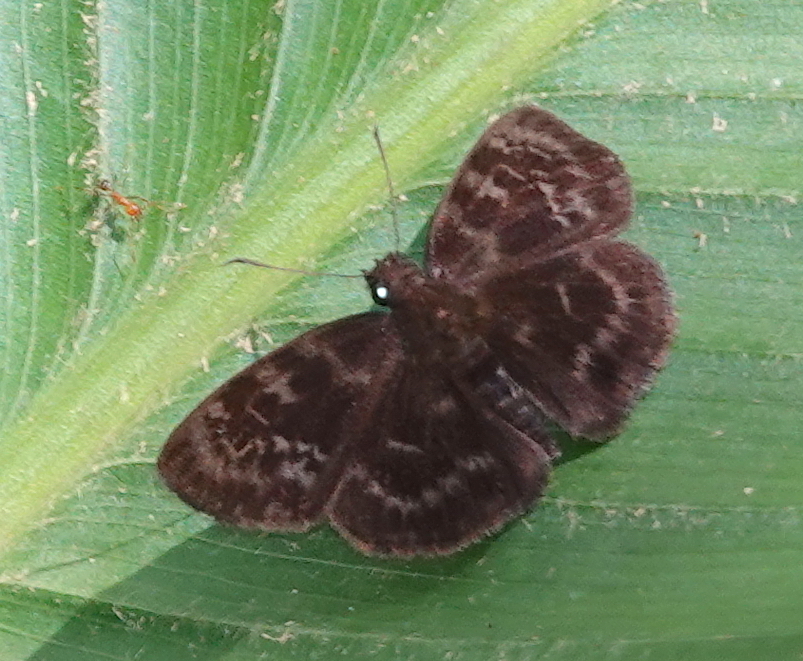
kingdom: Animalia
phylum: Arthropoda
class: Insecta
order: Lepidoptera
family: Hesperiidae
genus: Ouleus
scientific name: Ouleus fridericus
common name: Fridericus spreadwing
